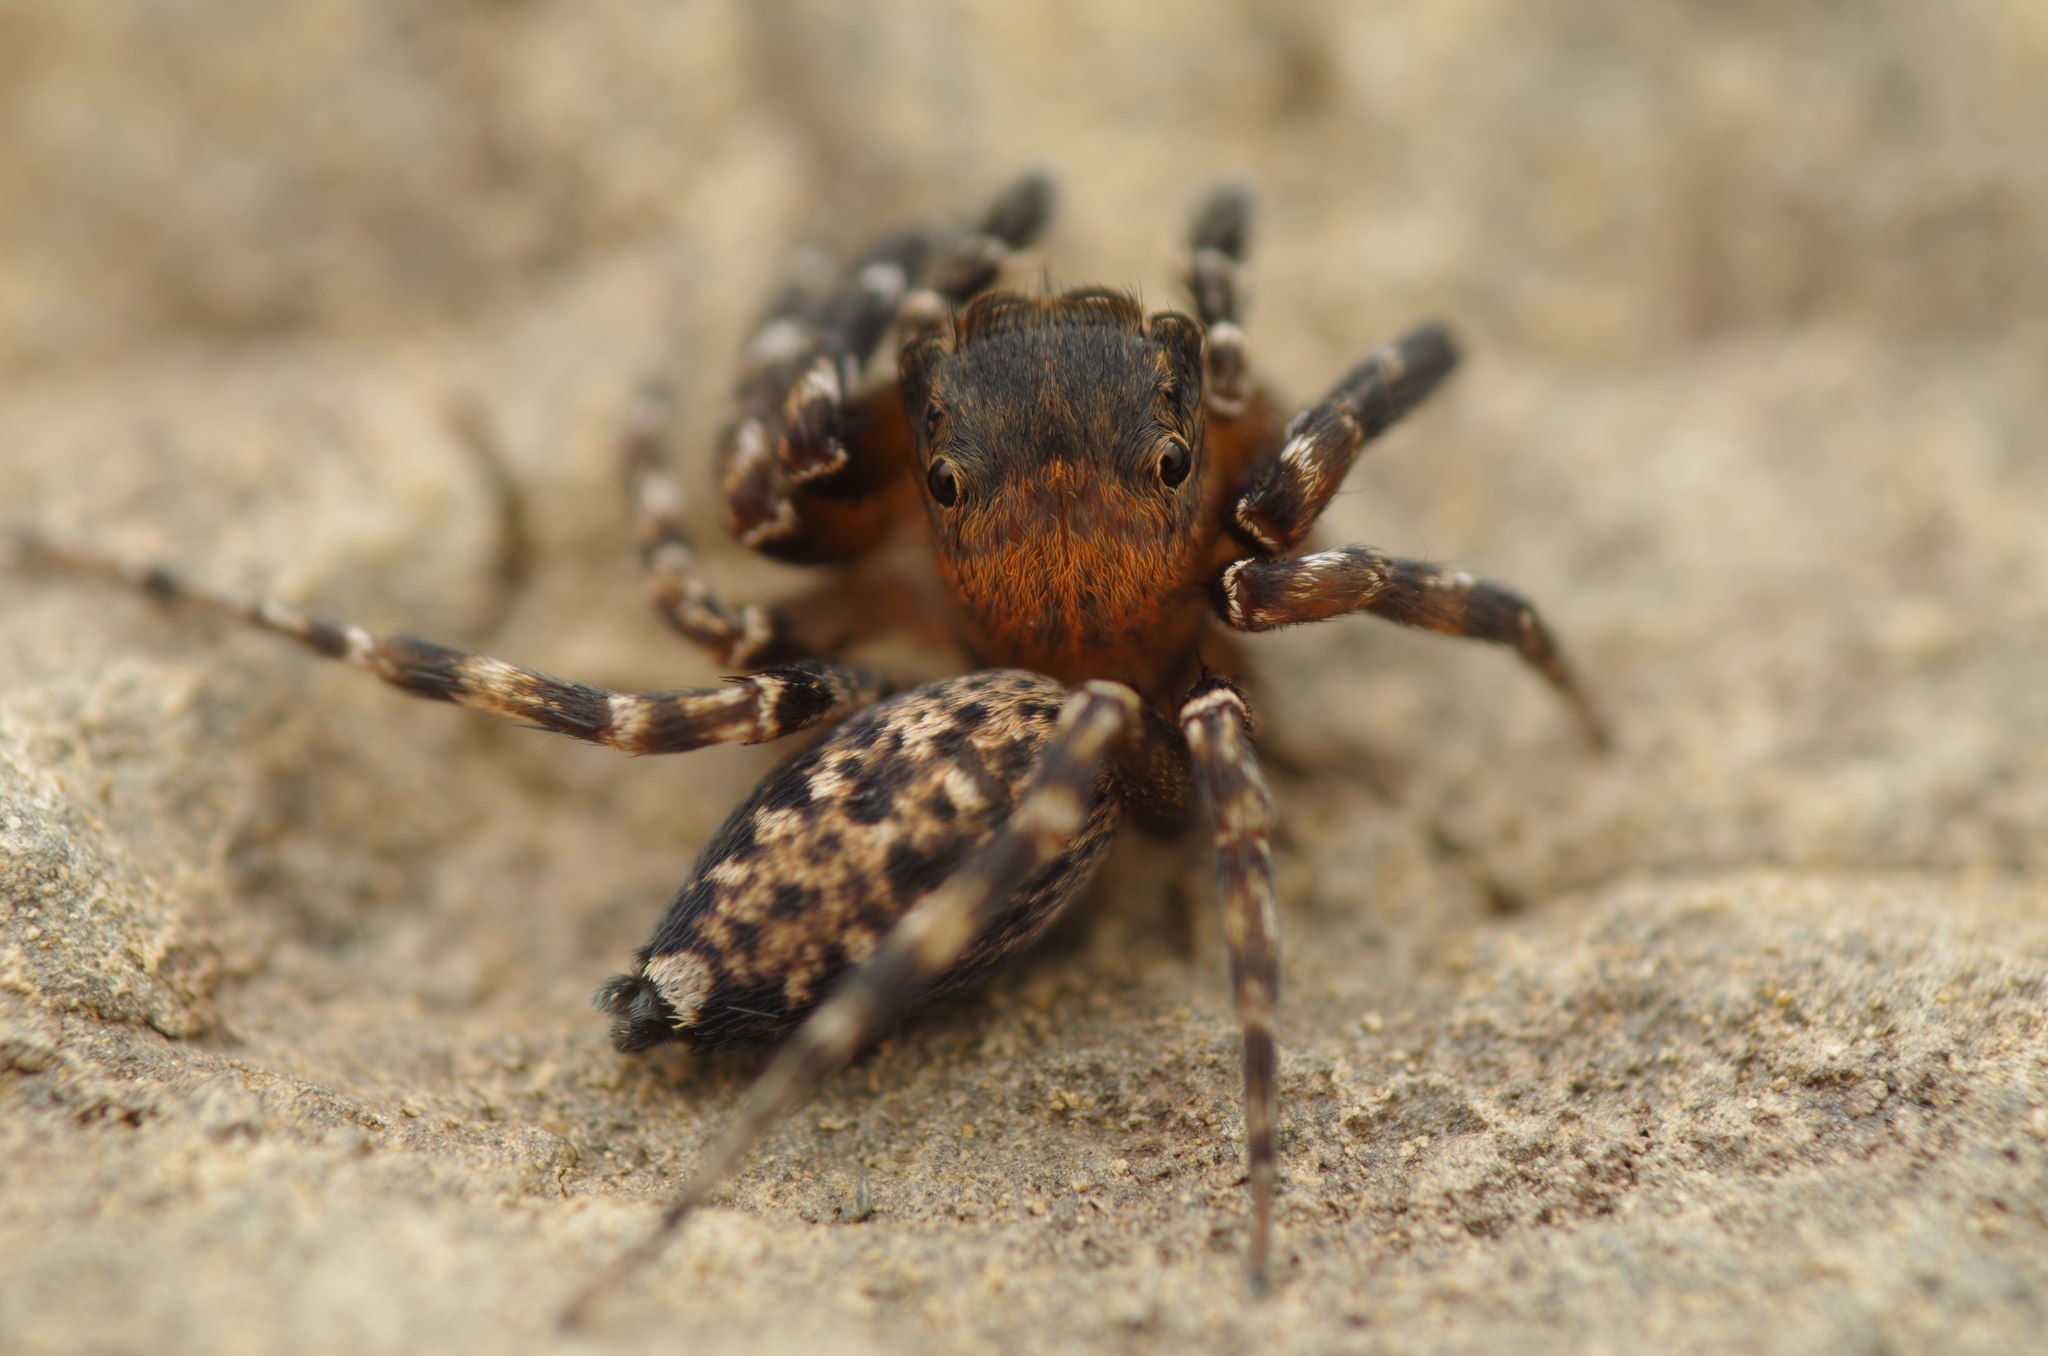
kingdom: Animalia
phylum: Arthropoda
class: Arachnida
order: Araneae
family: Salticidae
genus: Cyrba
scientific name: Cyrba algerina
